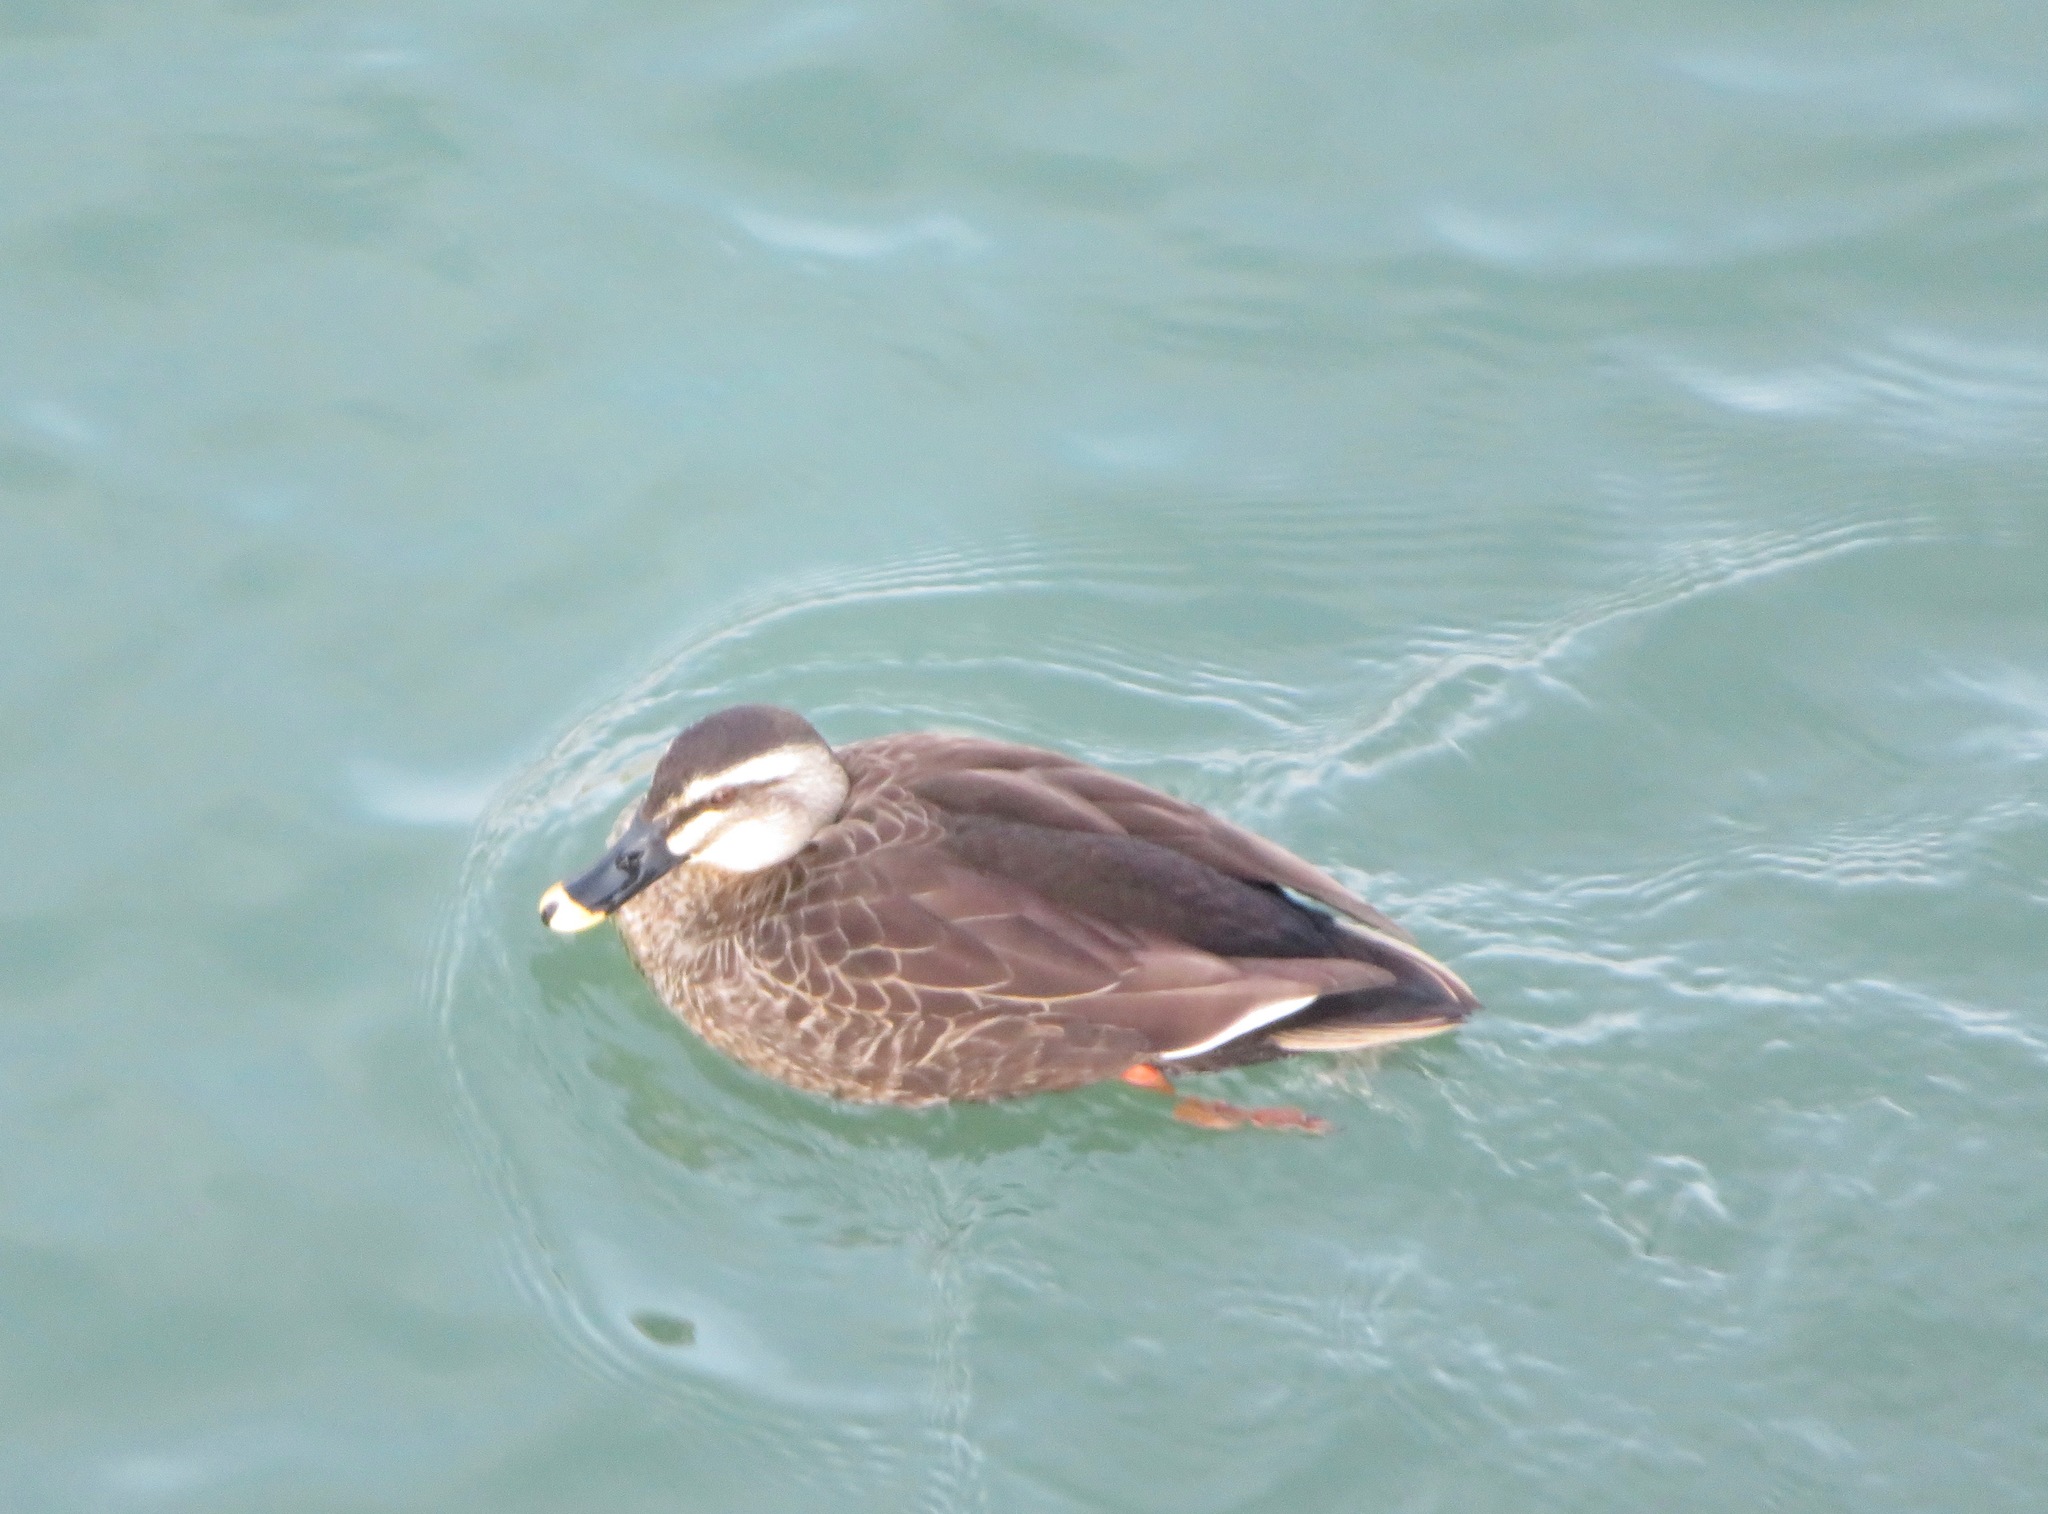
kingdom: Animalia
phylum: Chordata
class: Aves
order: Anseriformes
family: Anatidae
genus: Anas
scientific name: Anas zonorhyncha
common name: Eastern spot-billed duck
